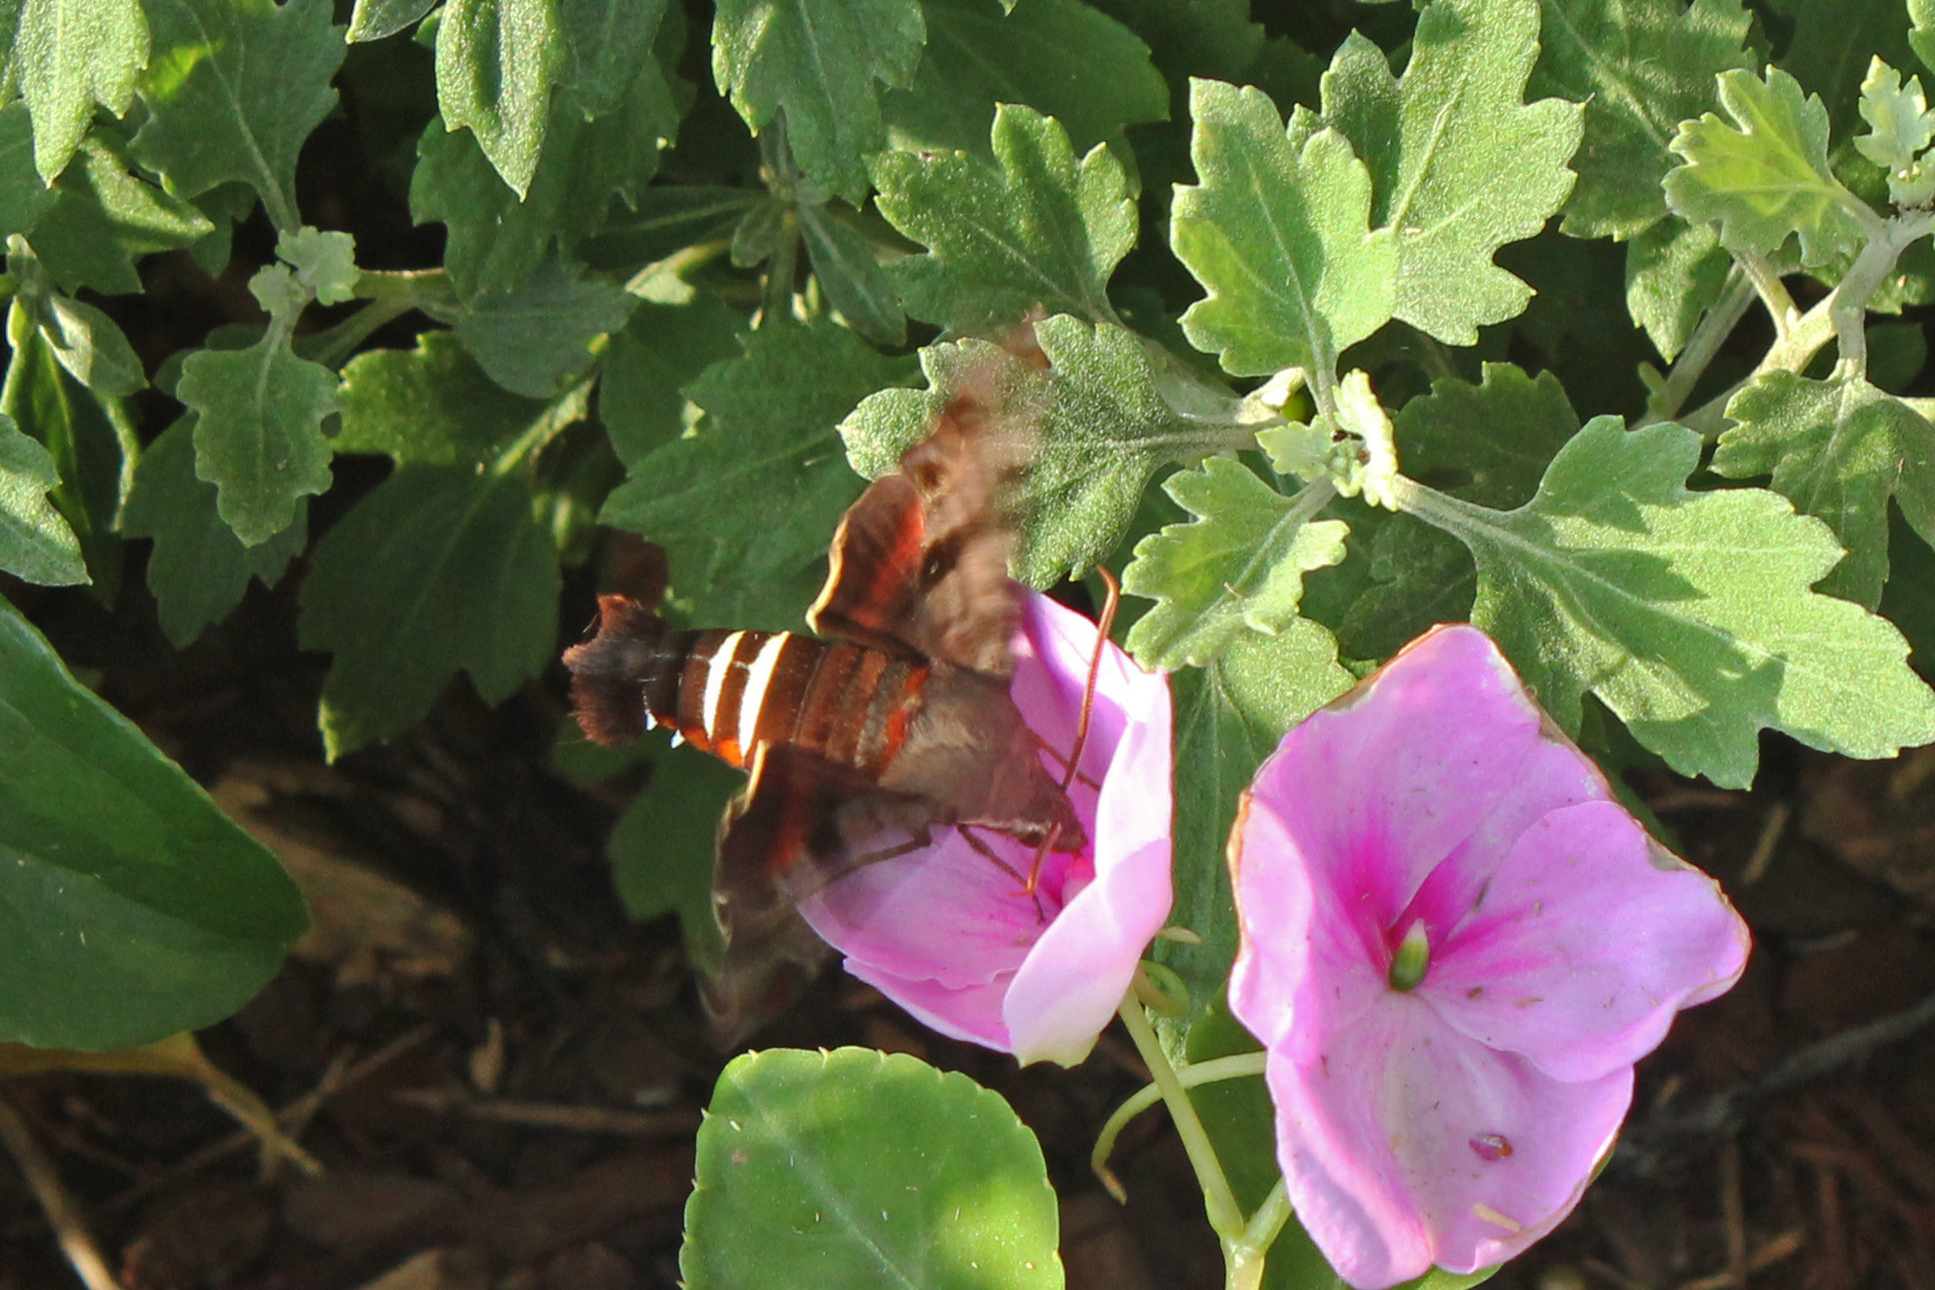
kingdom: Animalia
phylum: Arthropoda
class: Insecta
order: Lepidoptera
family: Sphingidae
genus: Amphion
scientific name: Amphion floridensis
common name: Nessus sphinx
